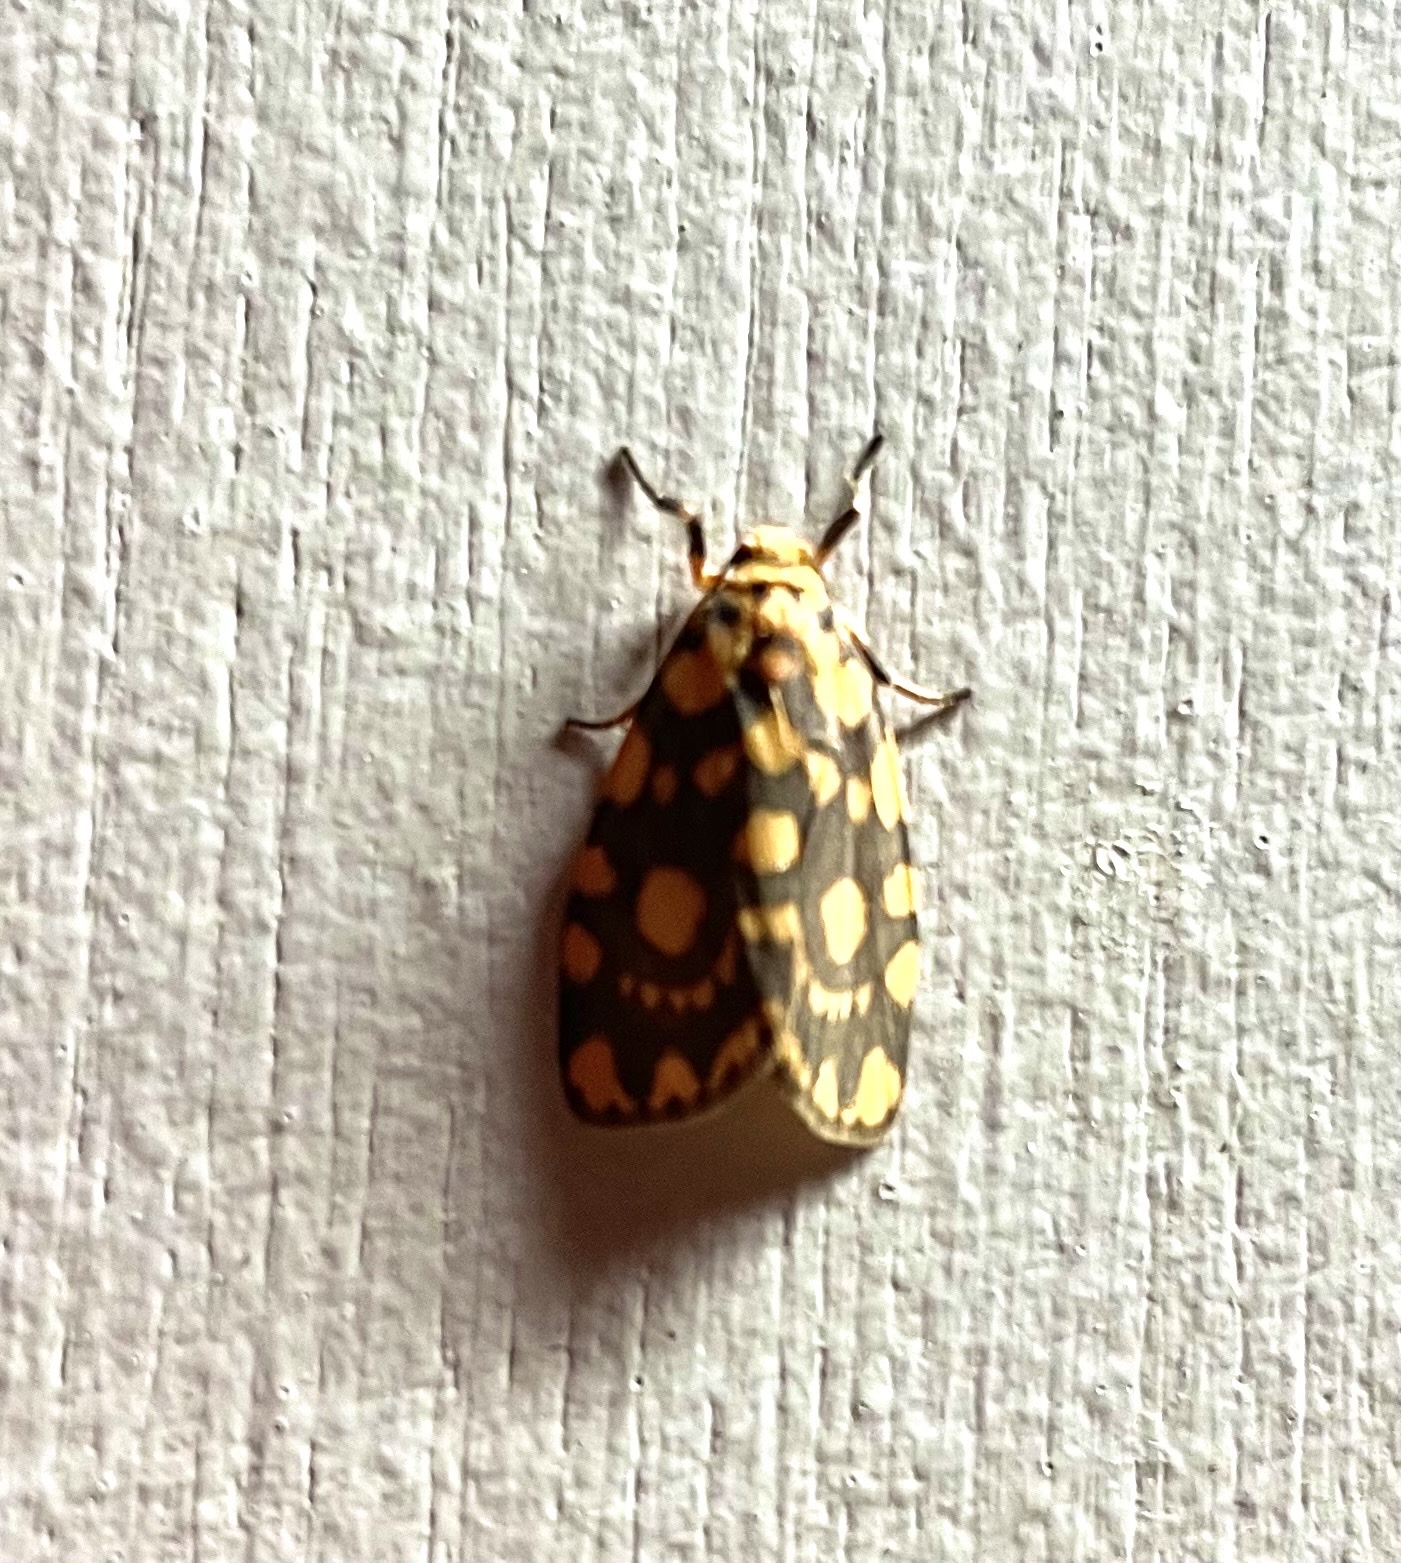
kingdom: Animalia
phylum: Arthropoda
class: Insecta
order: Lepidoptera
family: Erebidae
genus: Cyme
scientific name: Cyme quadrilineata
